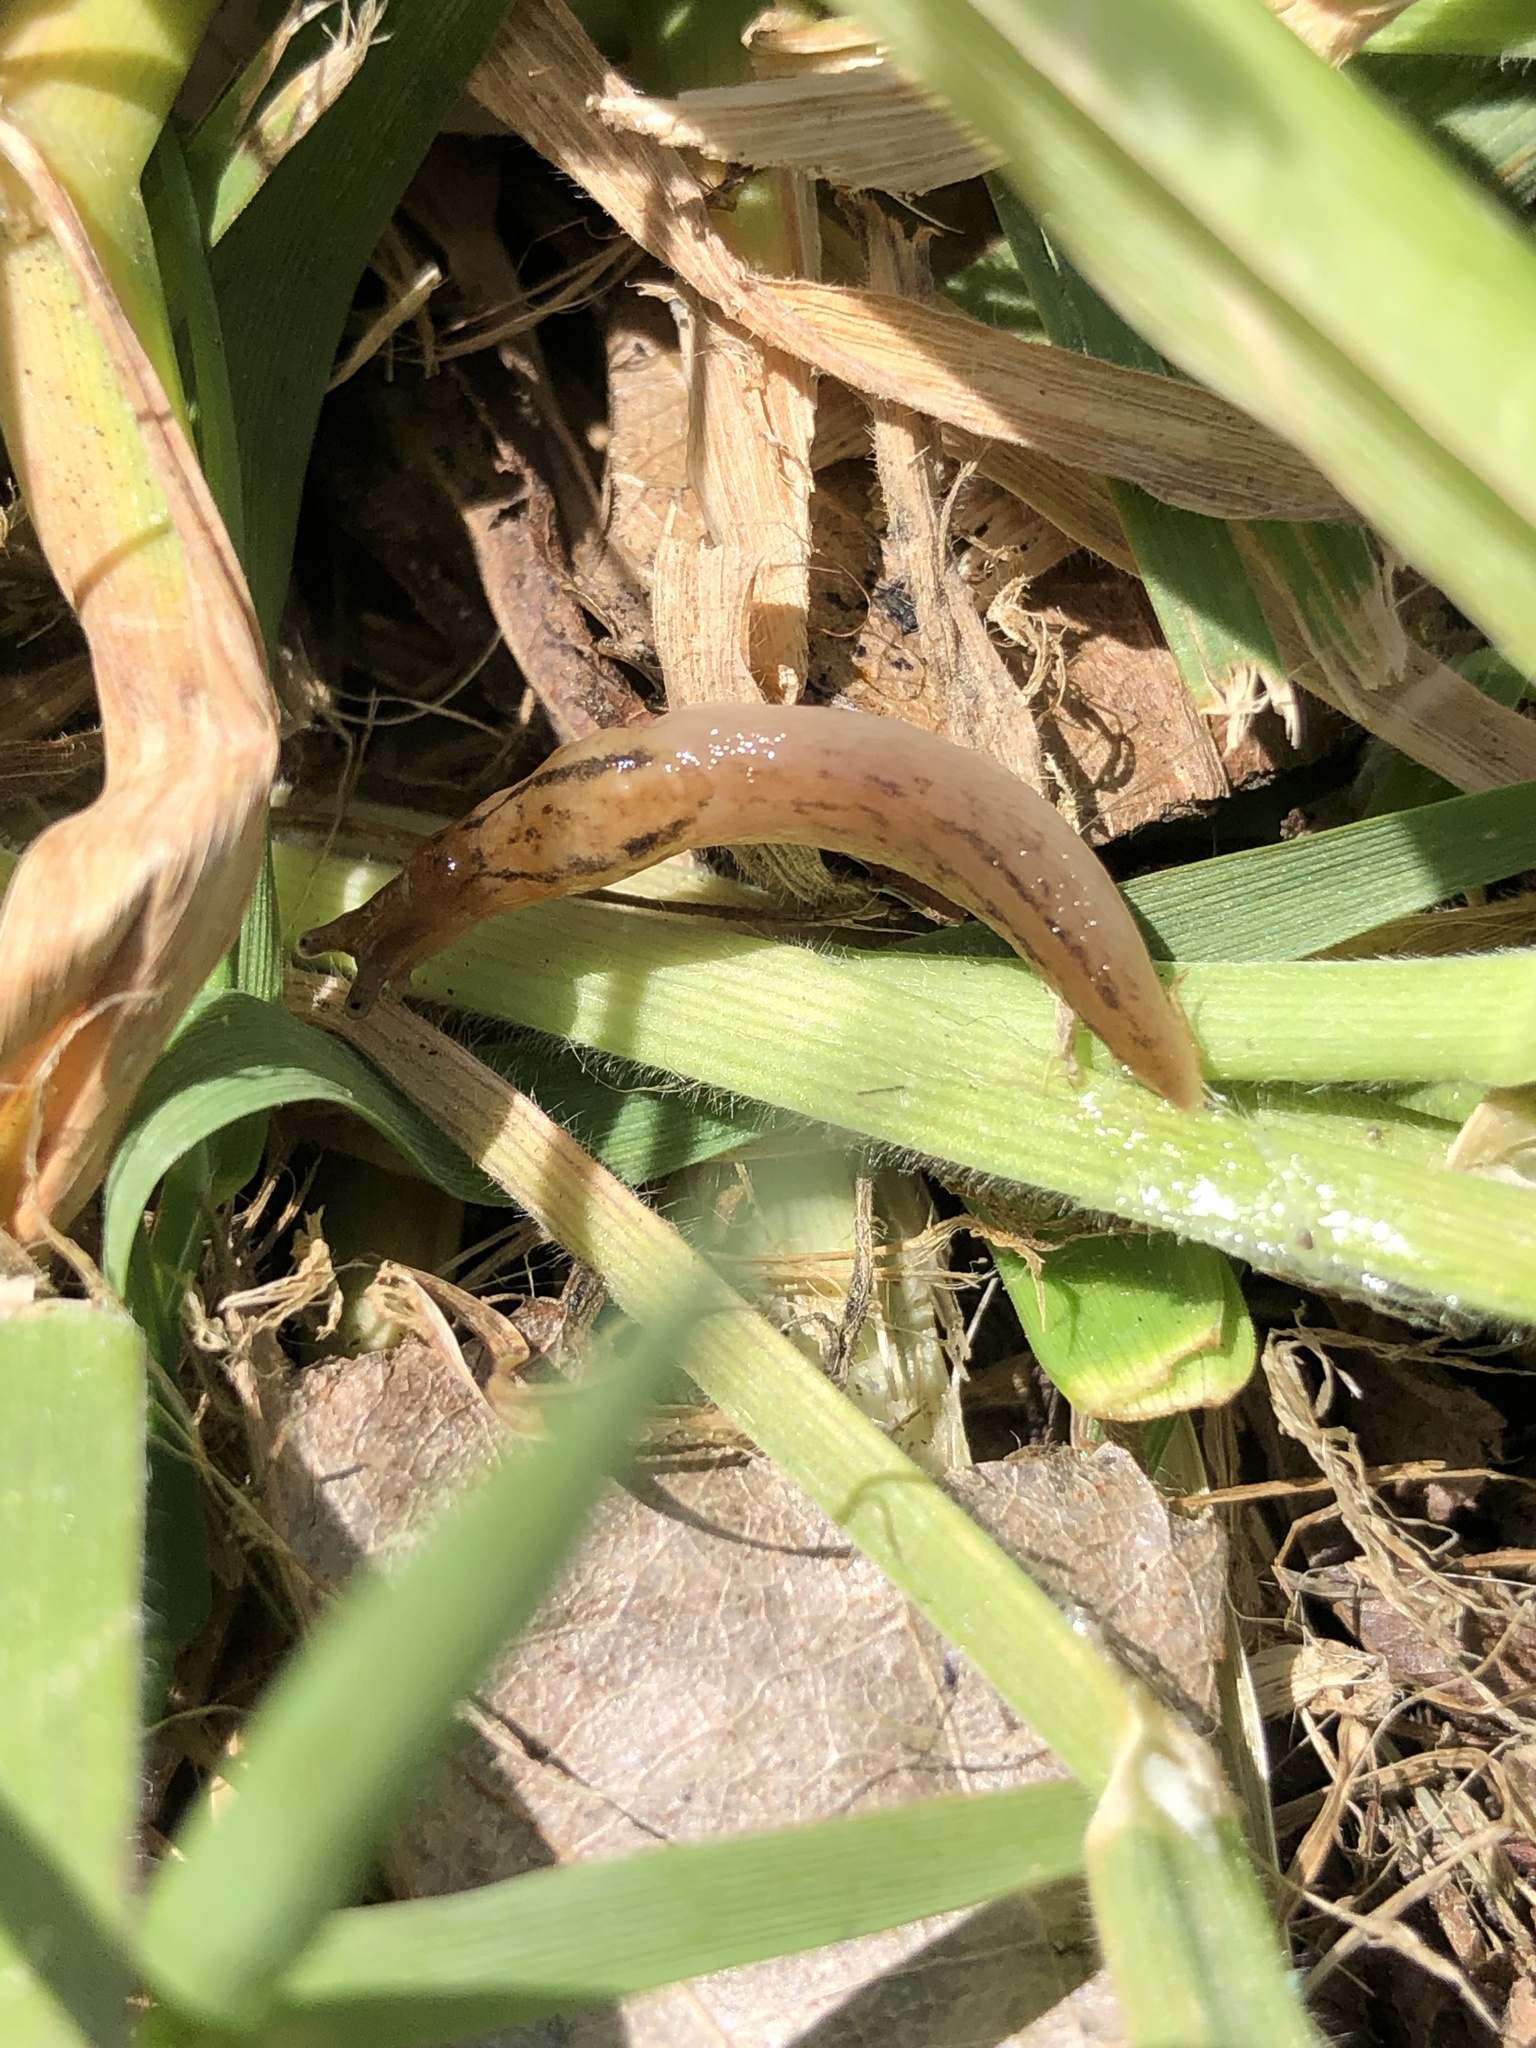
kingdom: Animalia
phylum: Mollusca
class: Gastropoda
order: Stylommatophora
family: Limacidae
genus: Ambigolimax
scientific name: Ambigolimax
